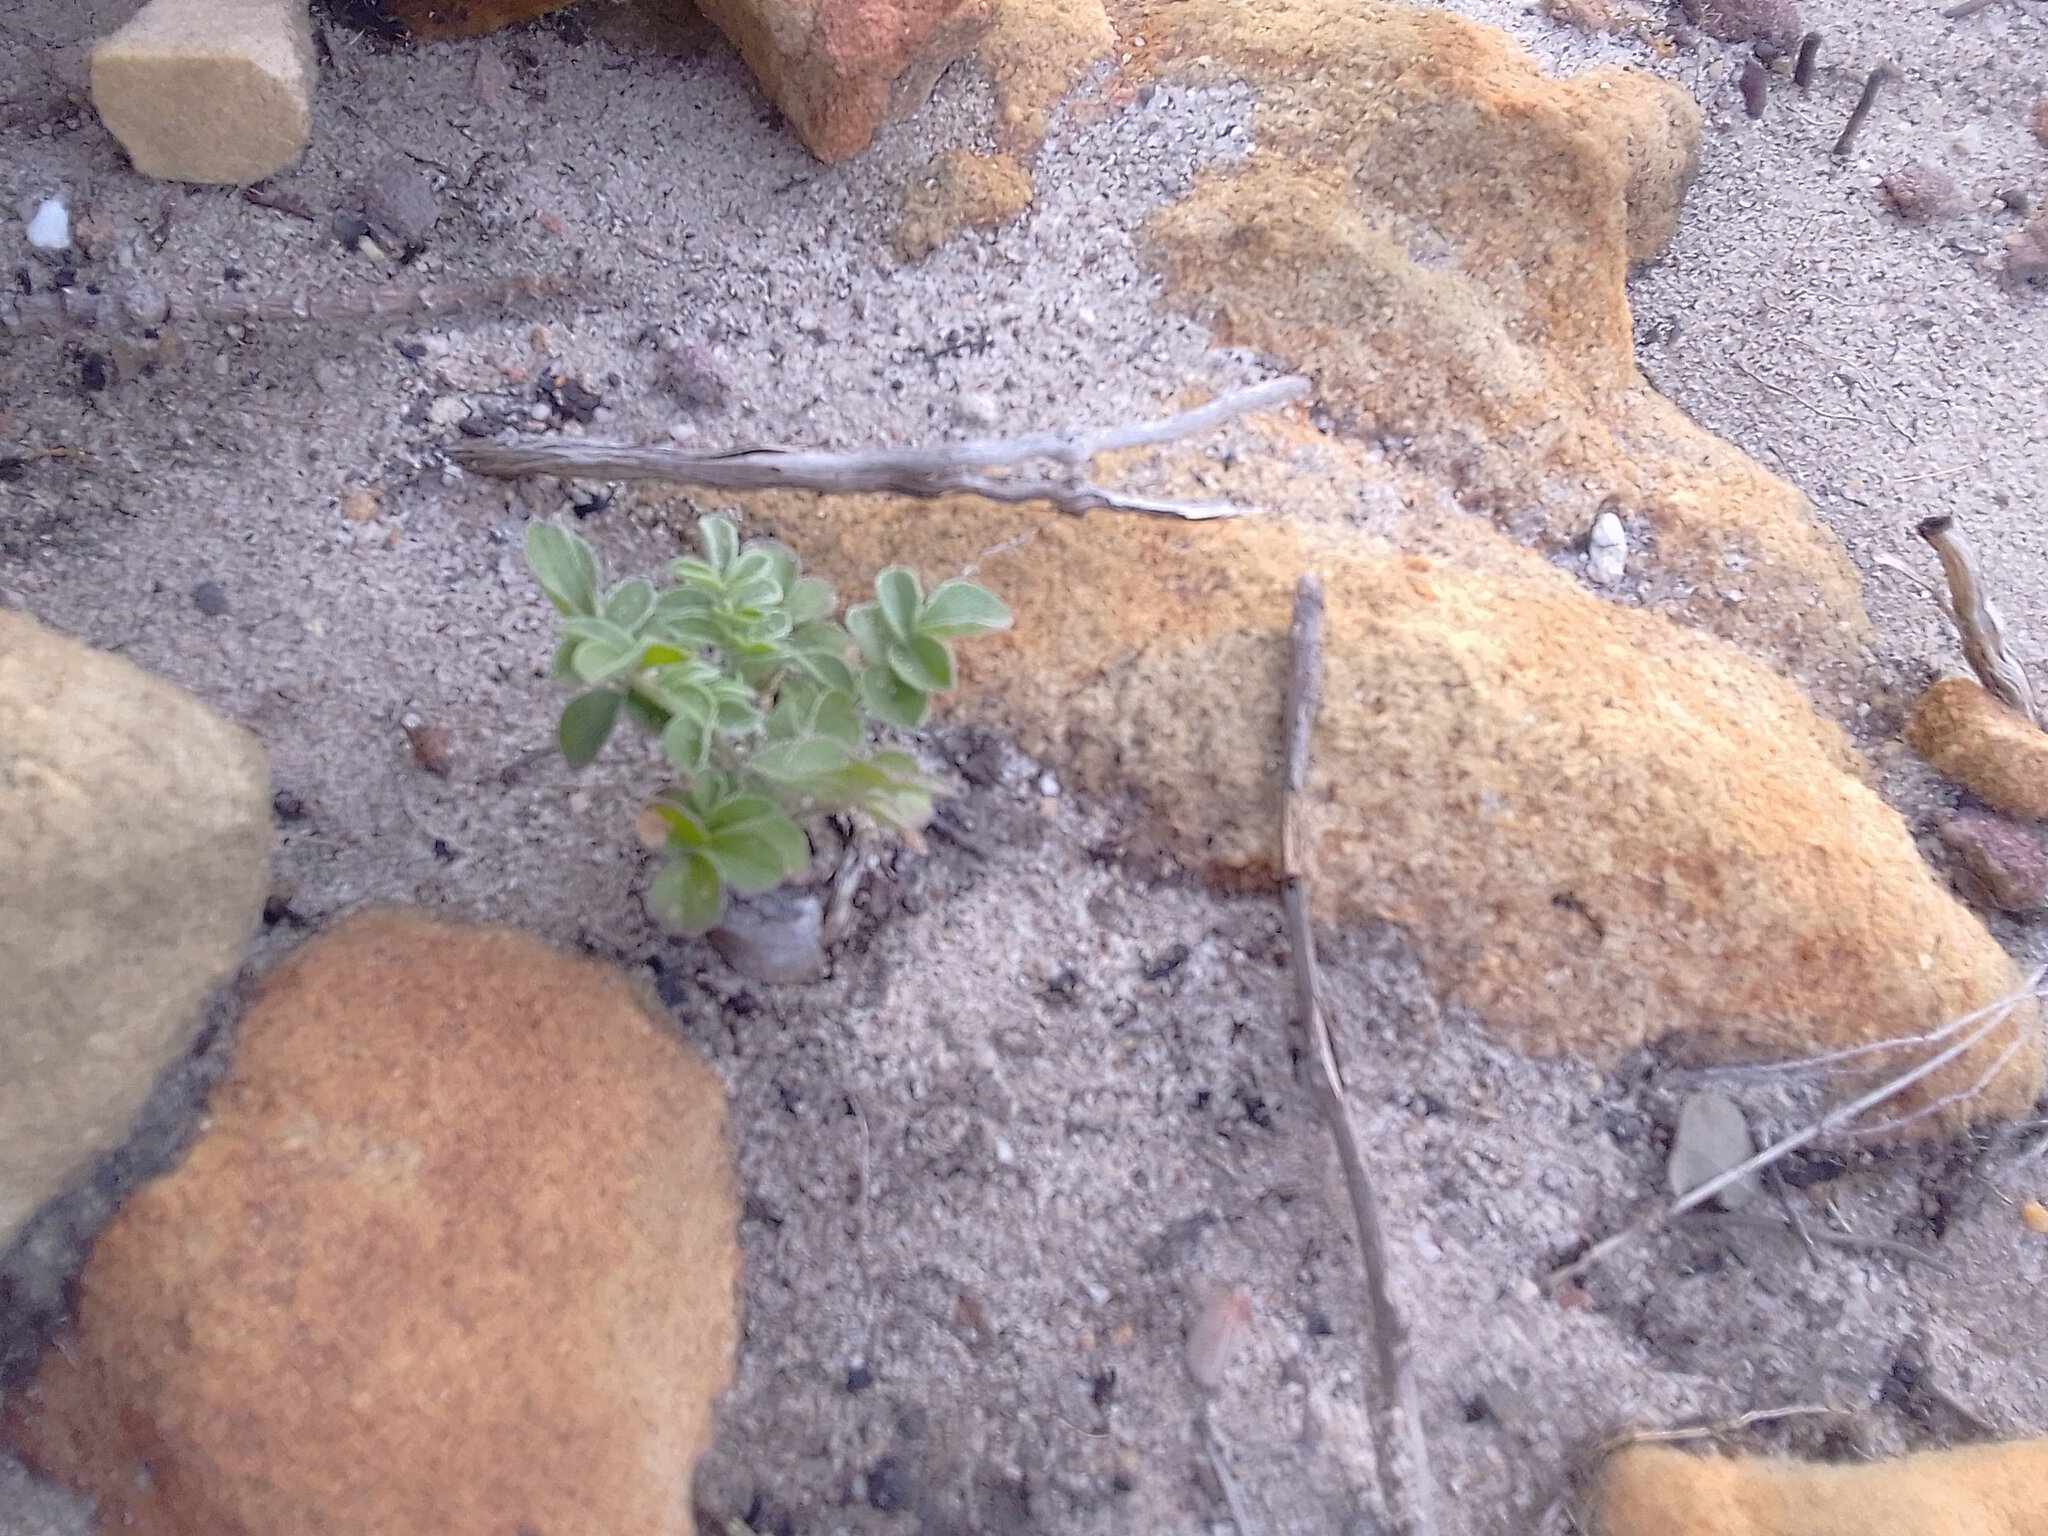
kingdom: Plantae
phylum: Tracheophyta
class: Magnoliopsida
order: Geraniales
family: Geraniaceae
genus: Pelargonium
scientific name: Pelargonium pinnatum
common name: Pinnated pelargonium
